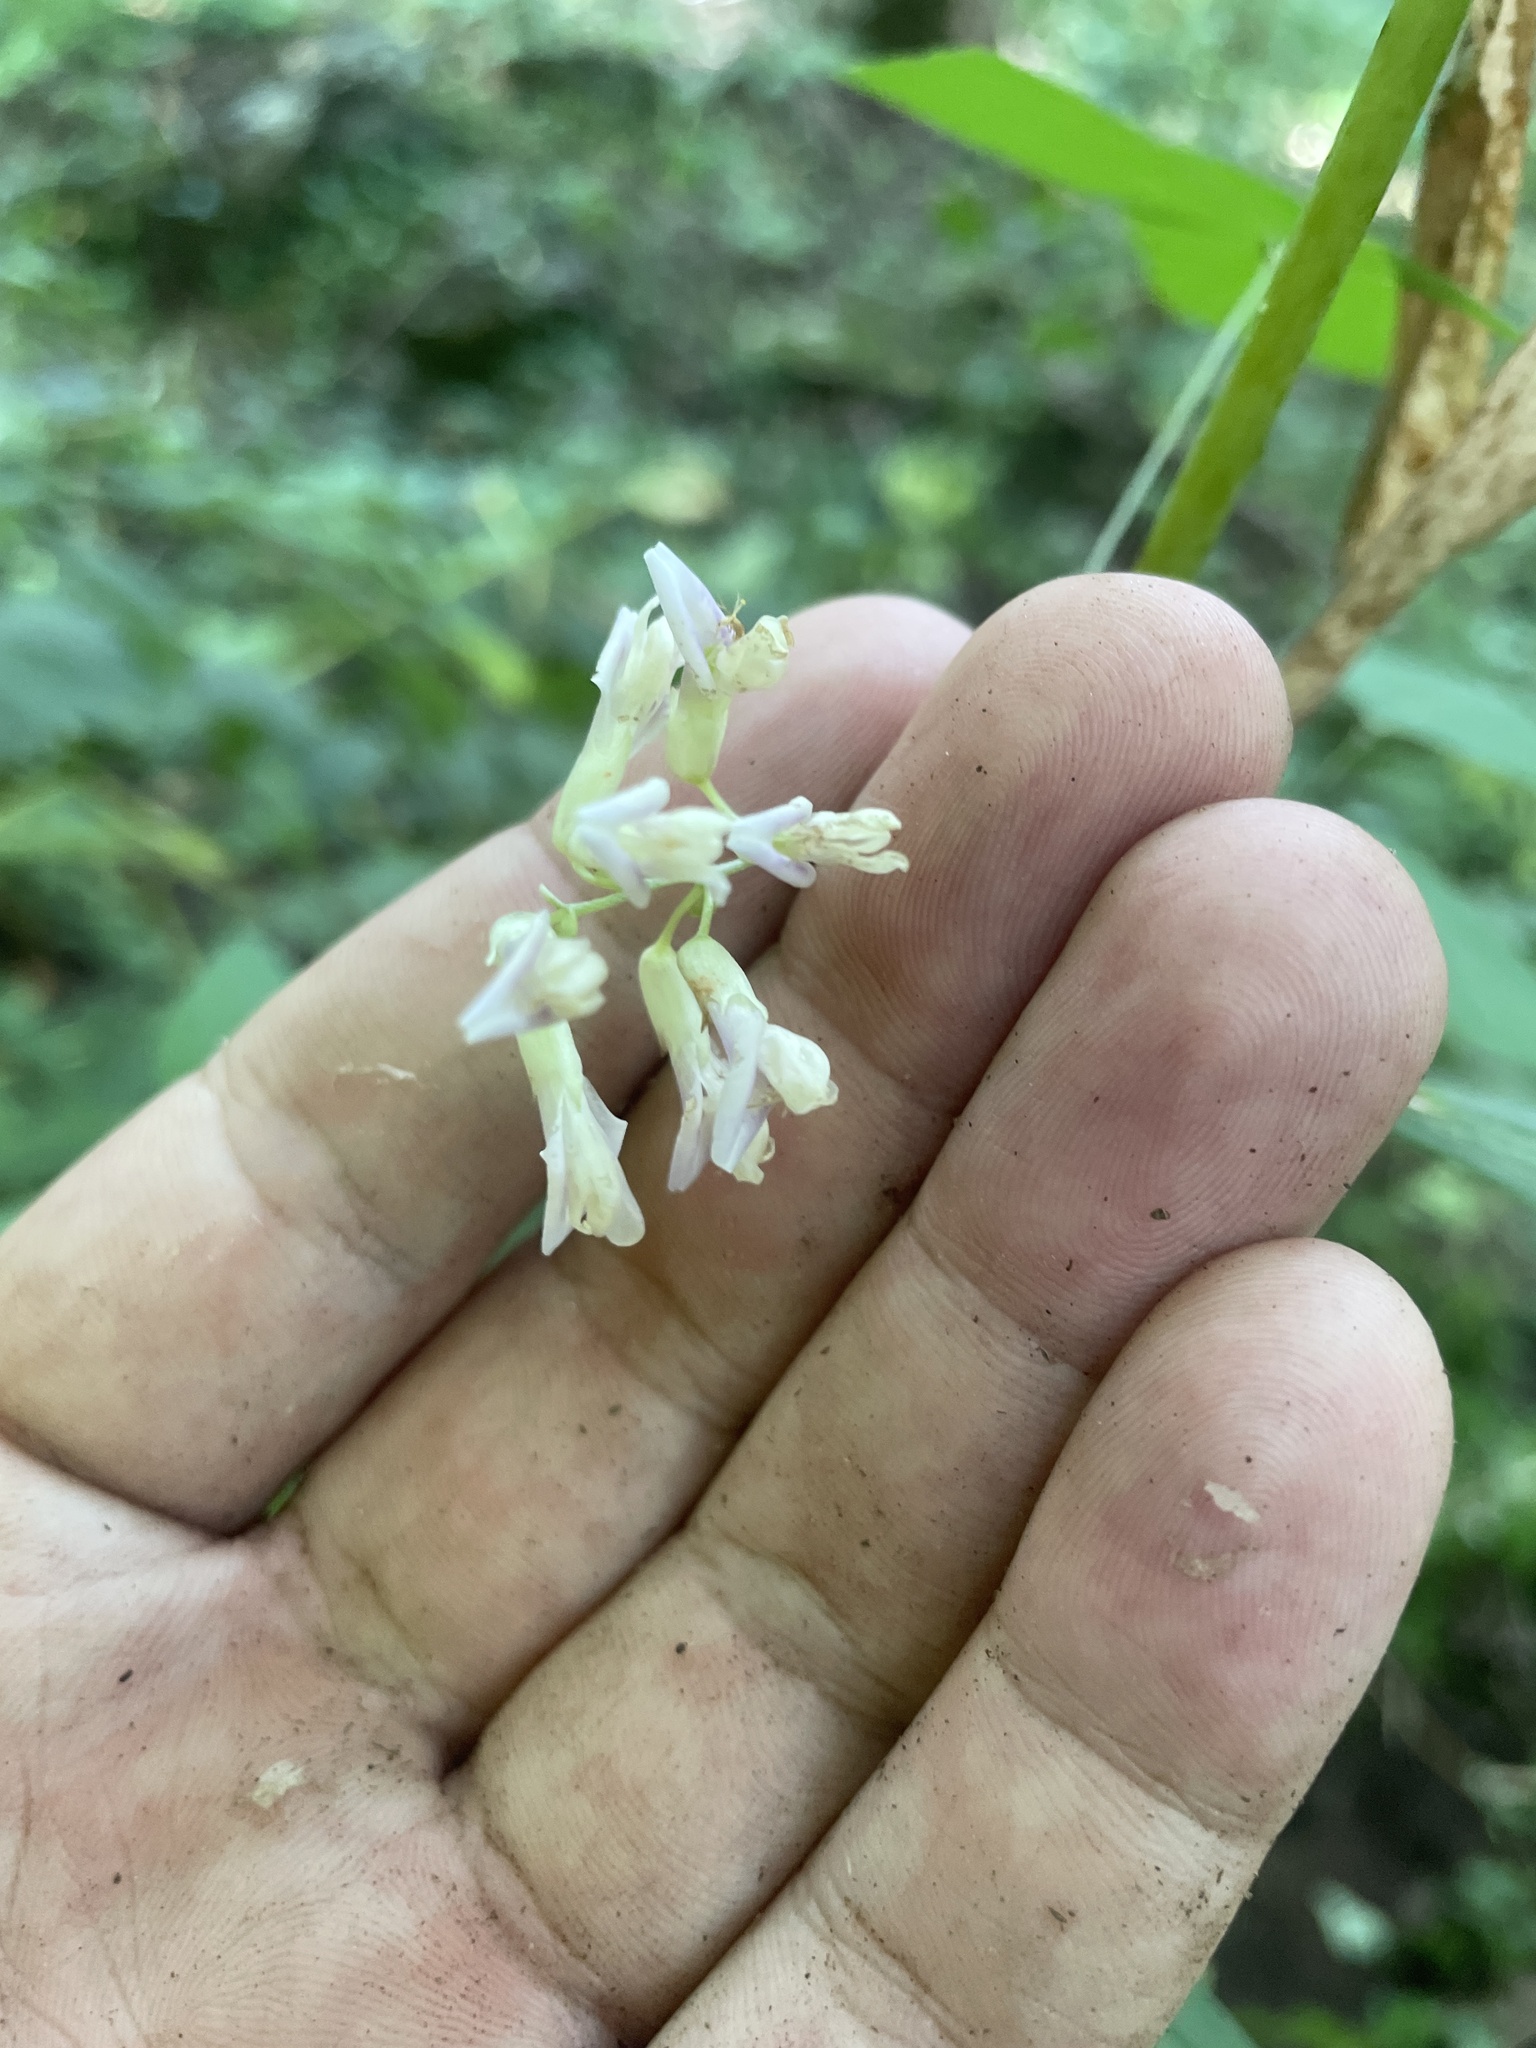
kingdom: Plantae
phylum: Tracheophyta
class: Magnoliopsida
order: Fabales
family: Fabaceae
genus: Amphicarpaea
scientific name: Amphicarpaea bracteata
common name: American hog peanut
